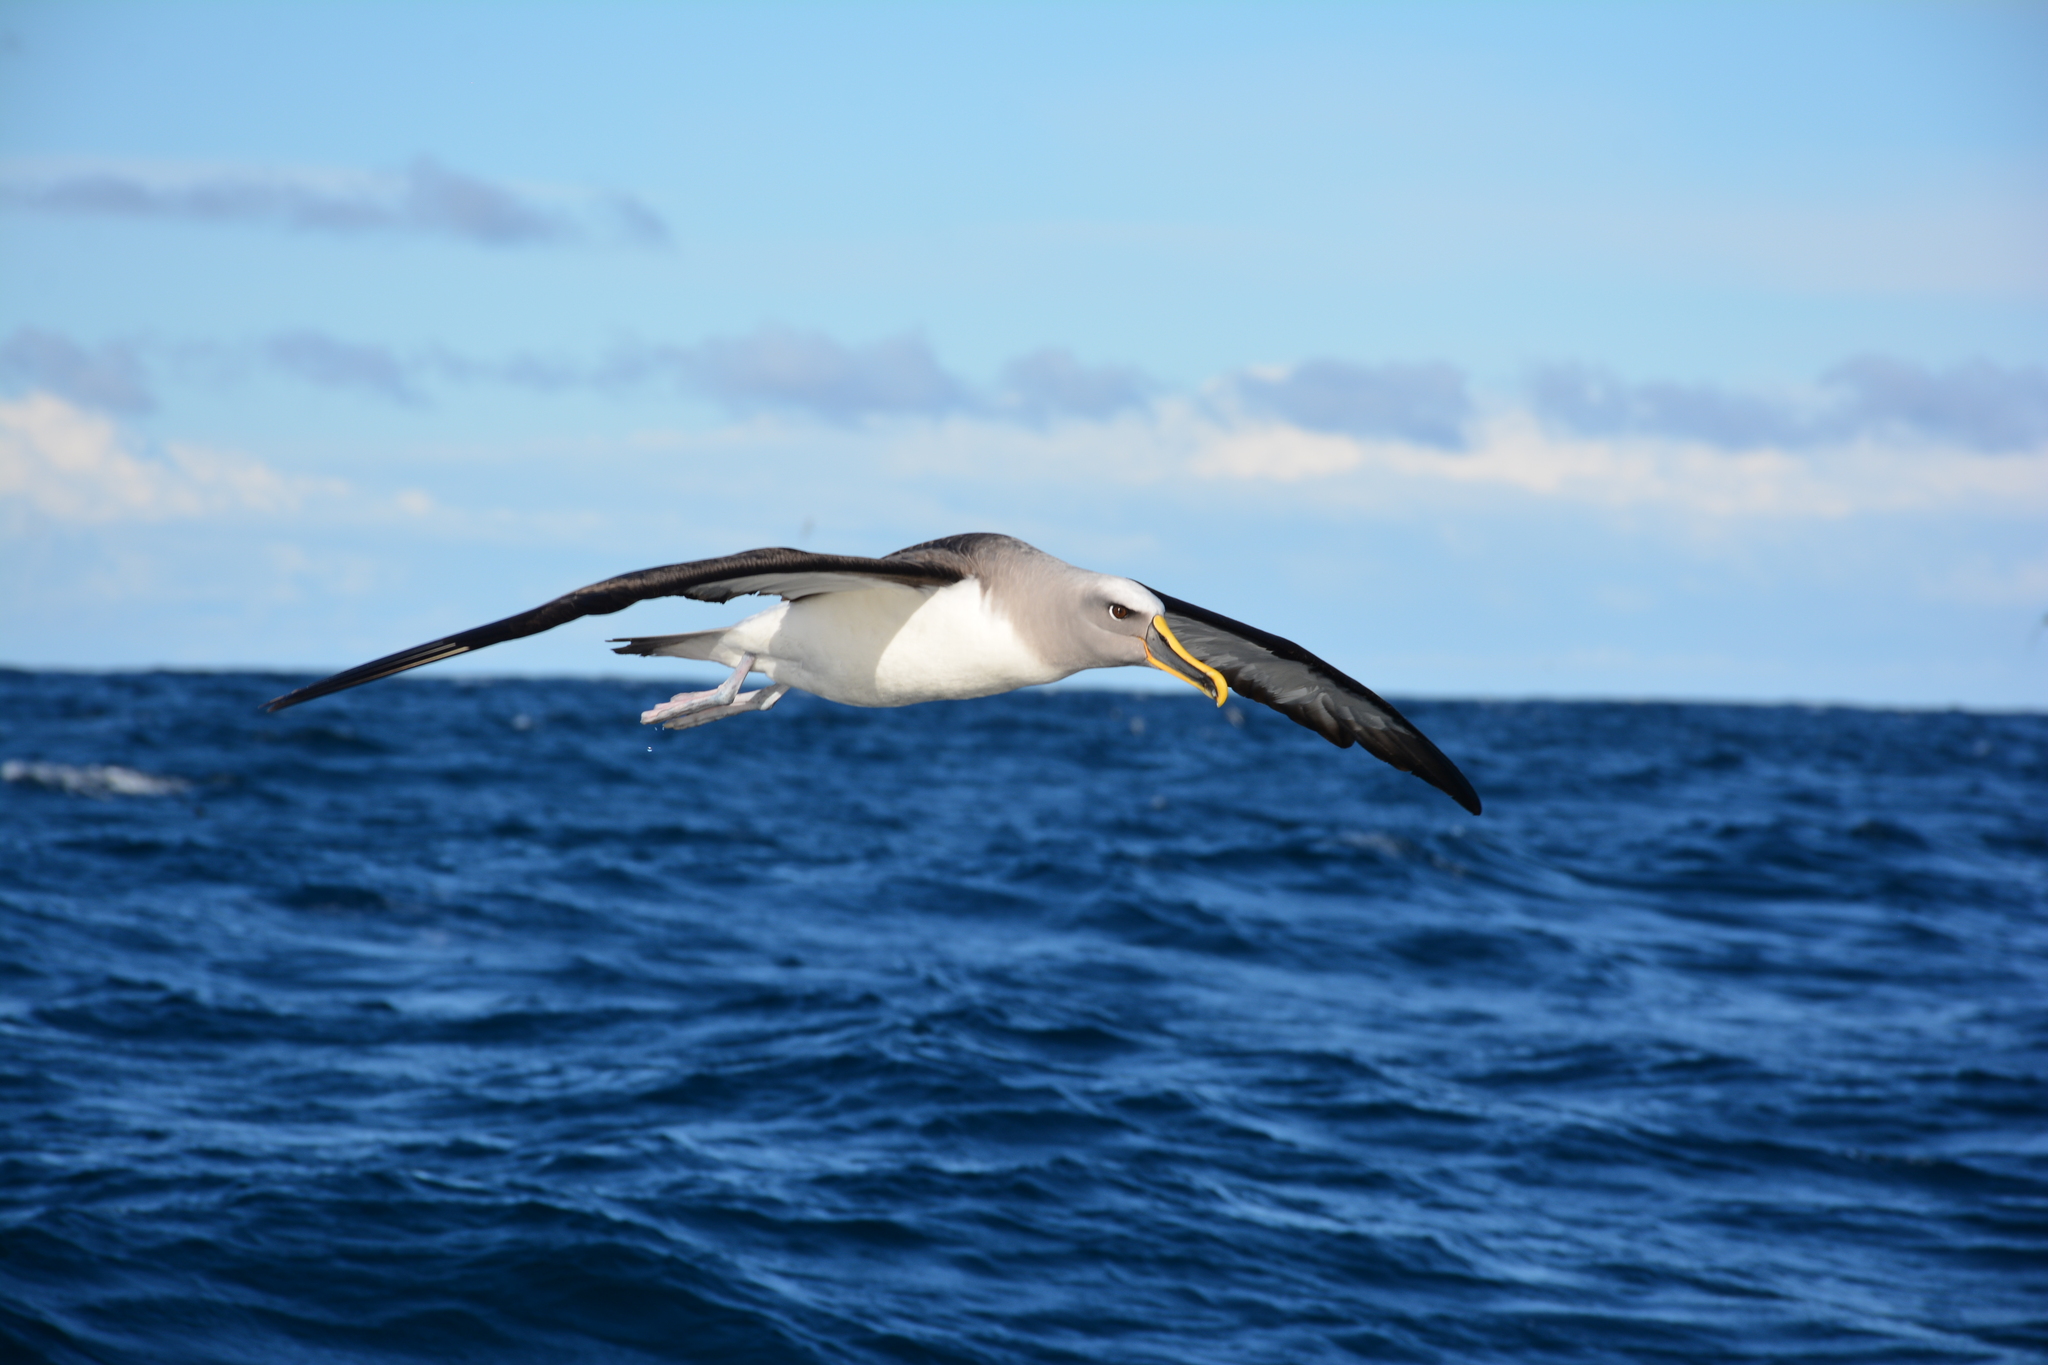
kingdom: Animalia
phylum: Chordata
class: Aves
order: Procellariiformes
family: Diomedeidae
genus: Thalassarche
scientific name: Thalassarche bulleri
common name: Buller's albatross
